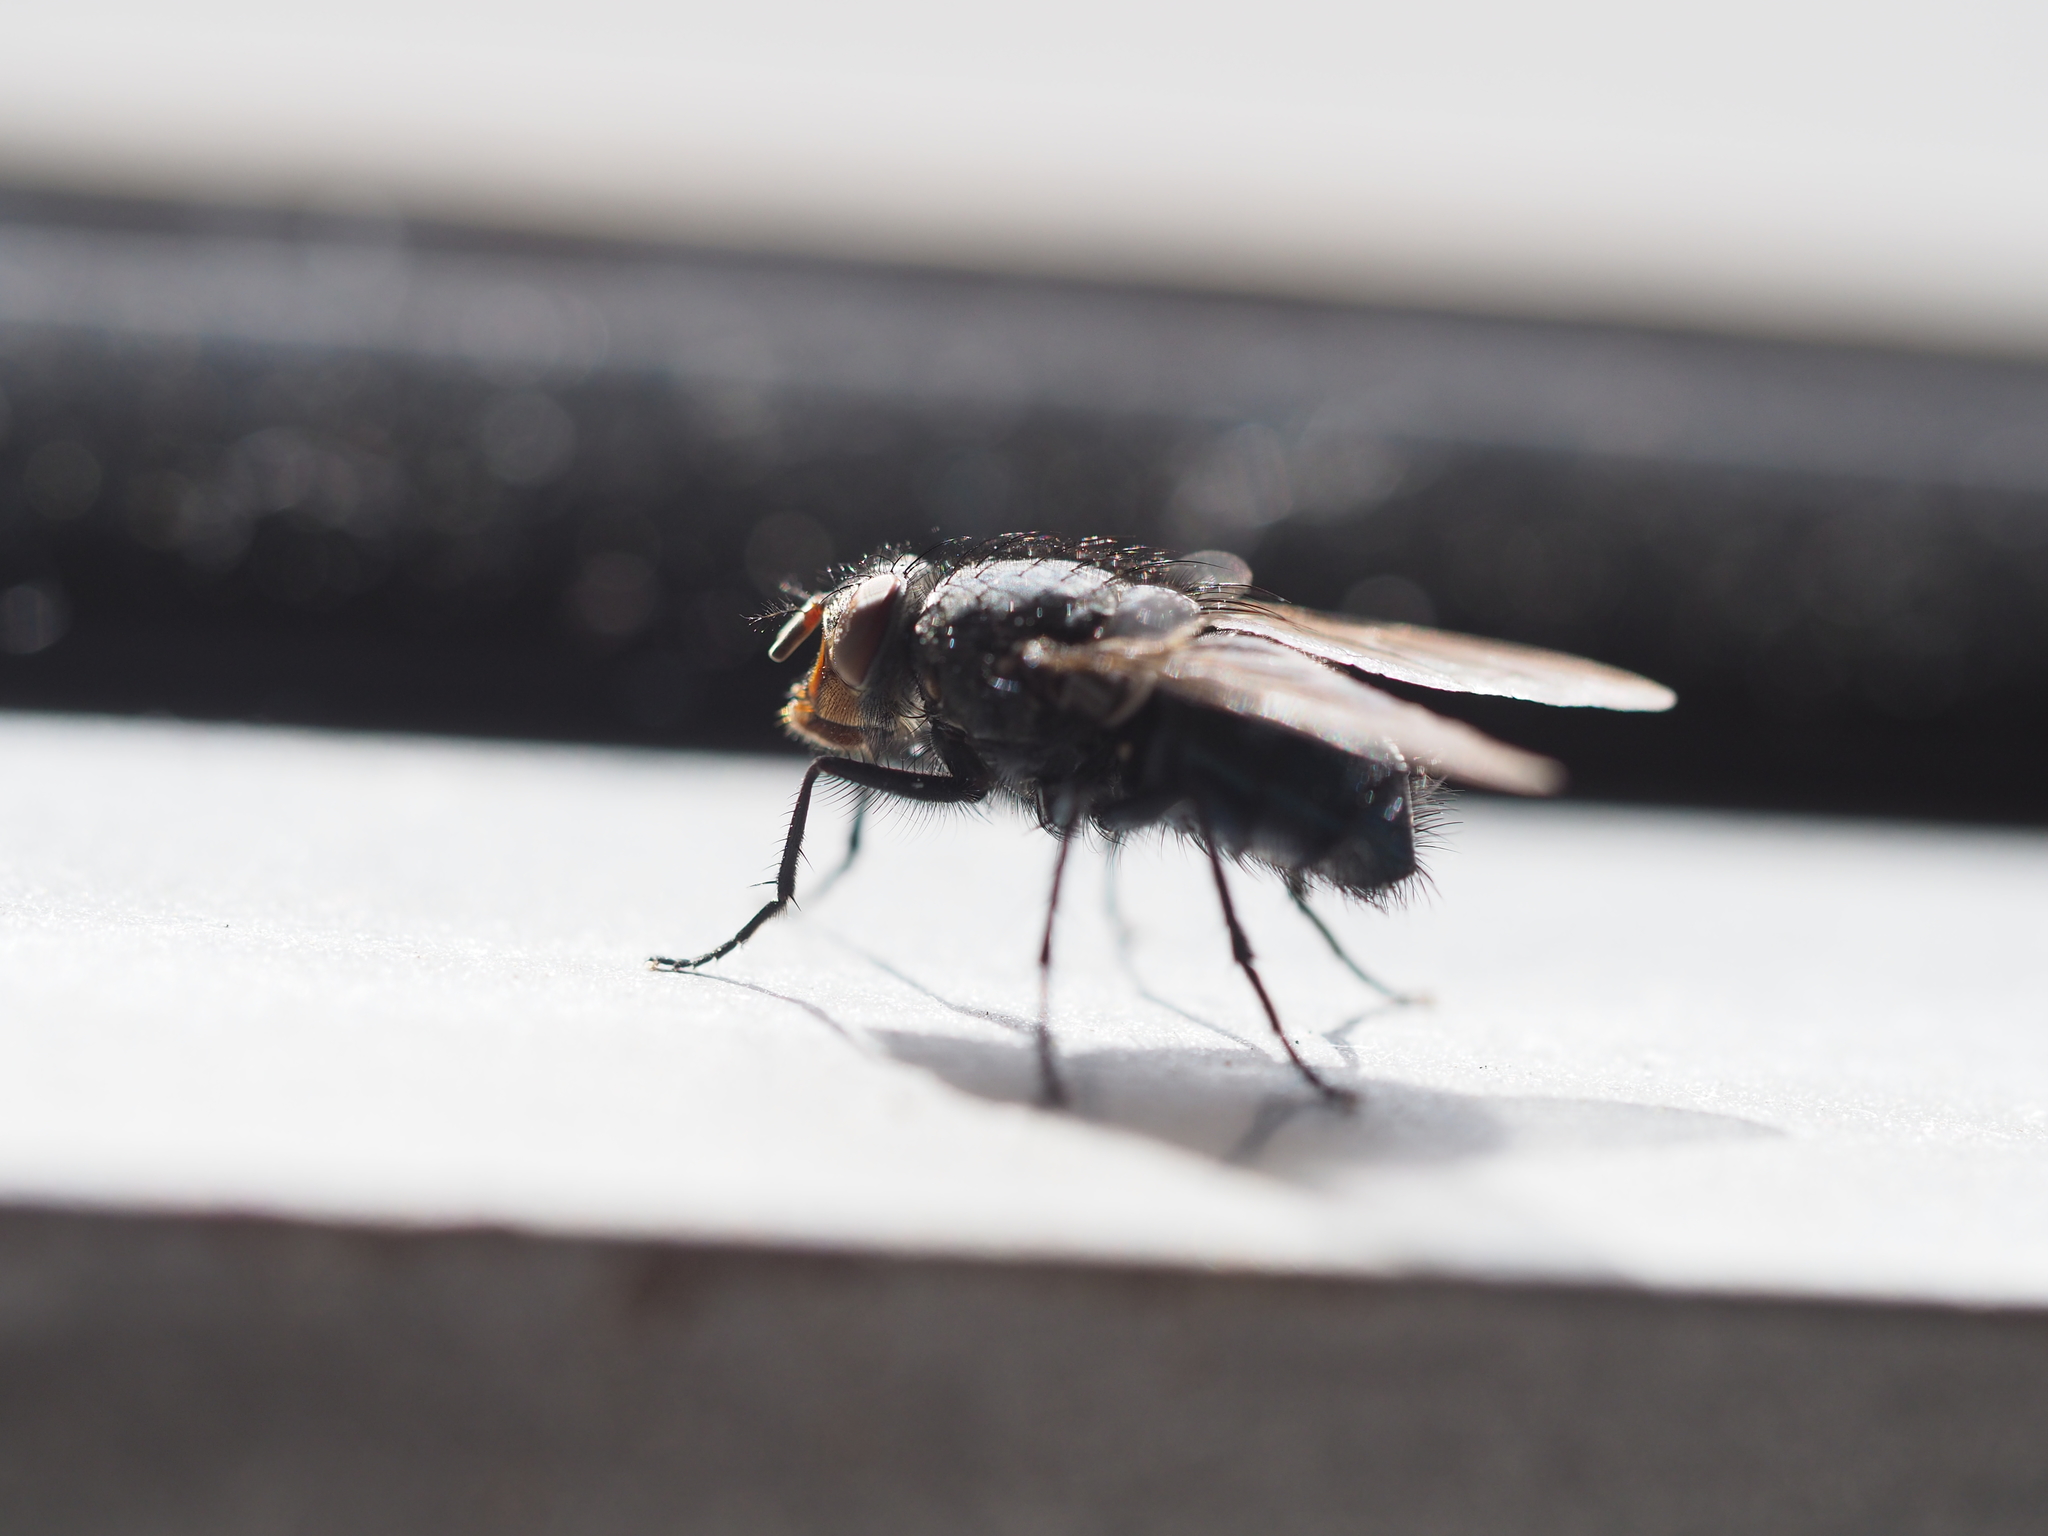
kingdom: Animalia
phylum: Arthropoda
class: Insecta
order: Diptera
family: Calliphoridae
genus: Calliphora
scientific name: Calliphora vicina
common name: Common blow flie
